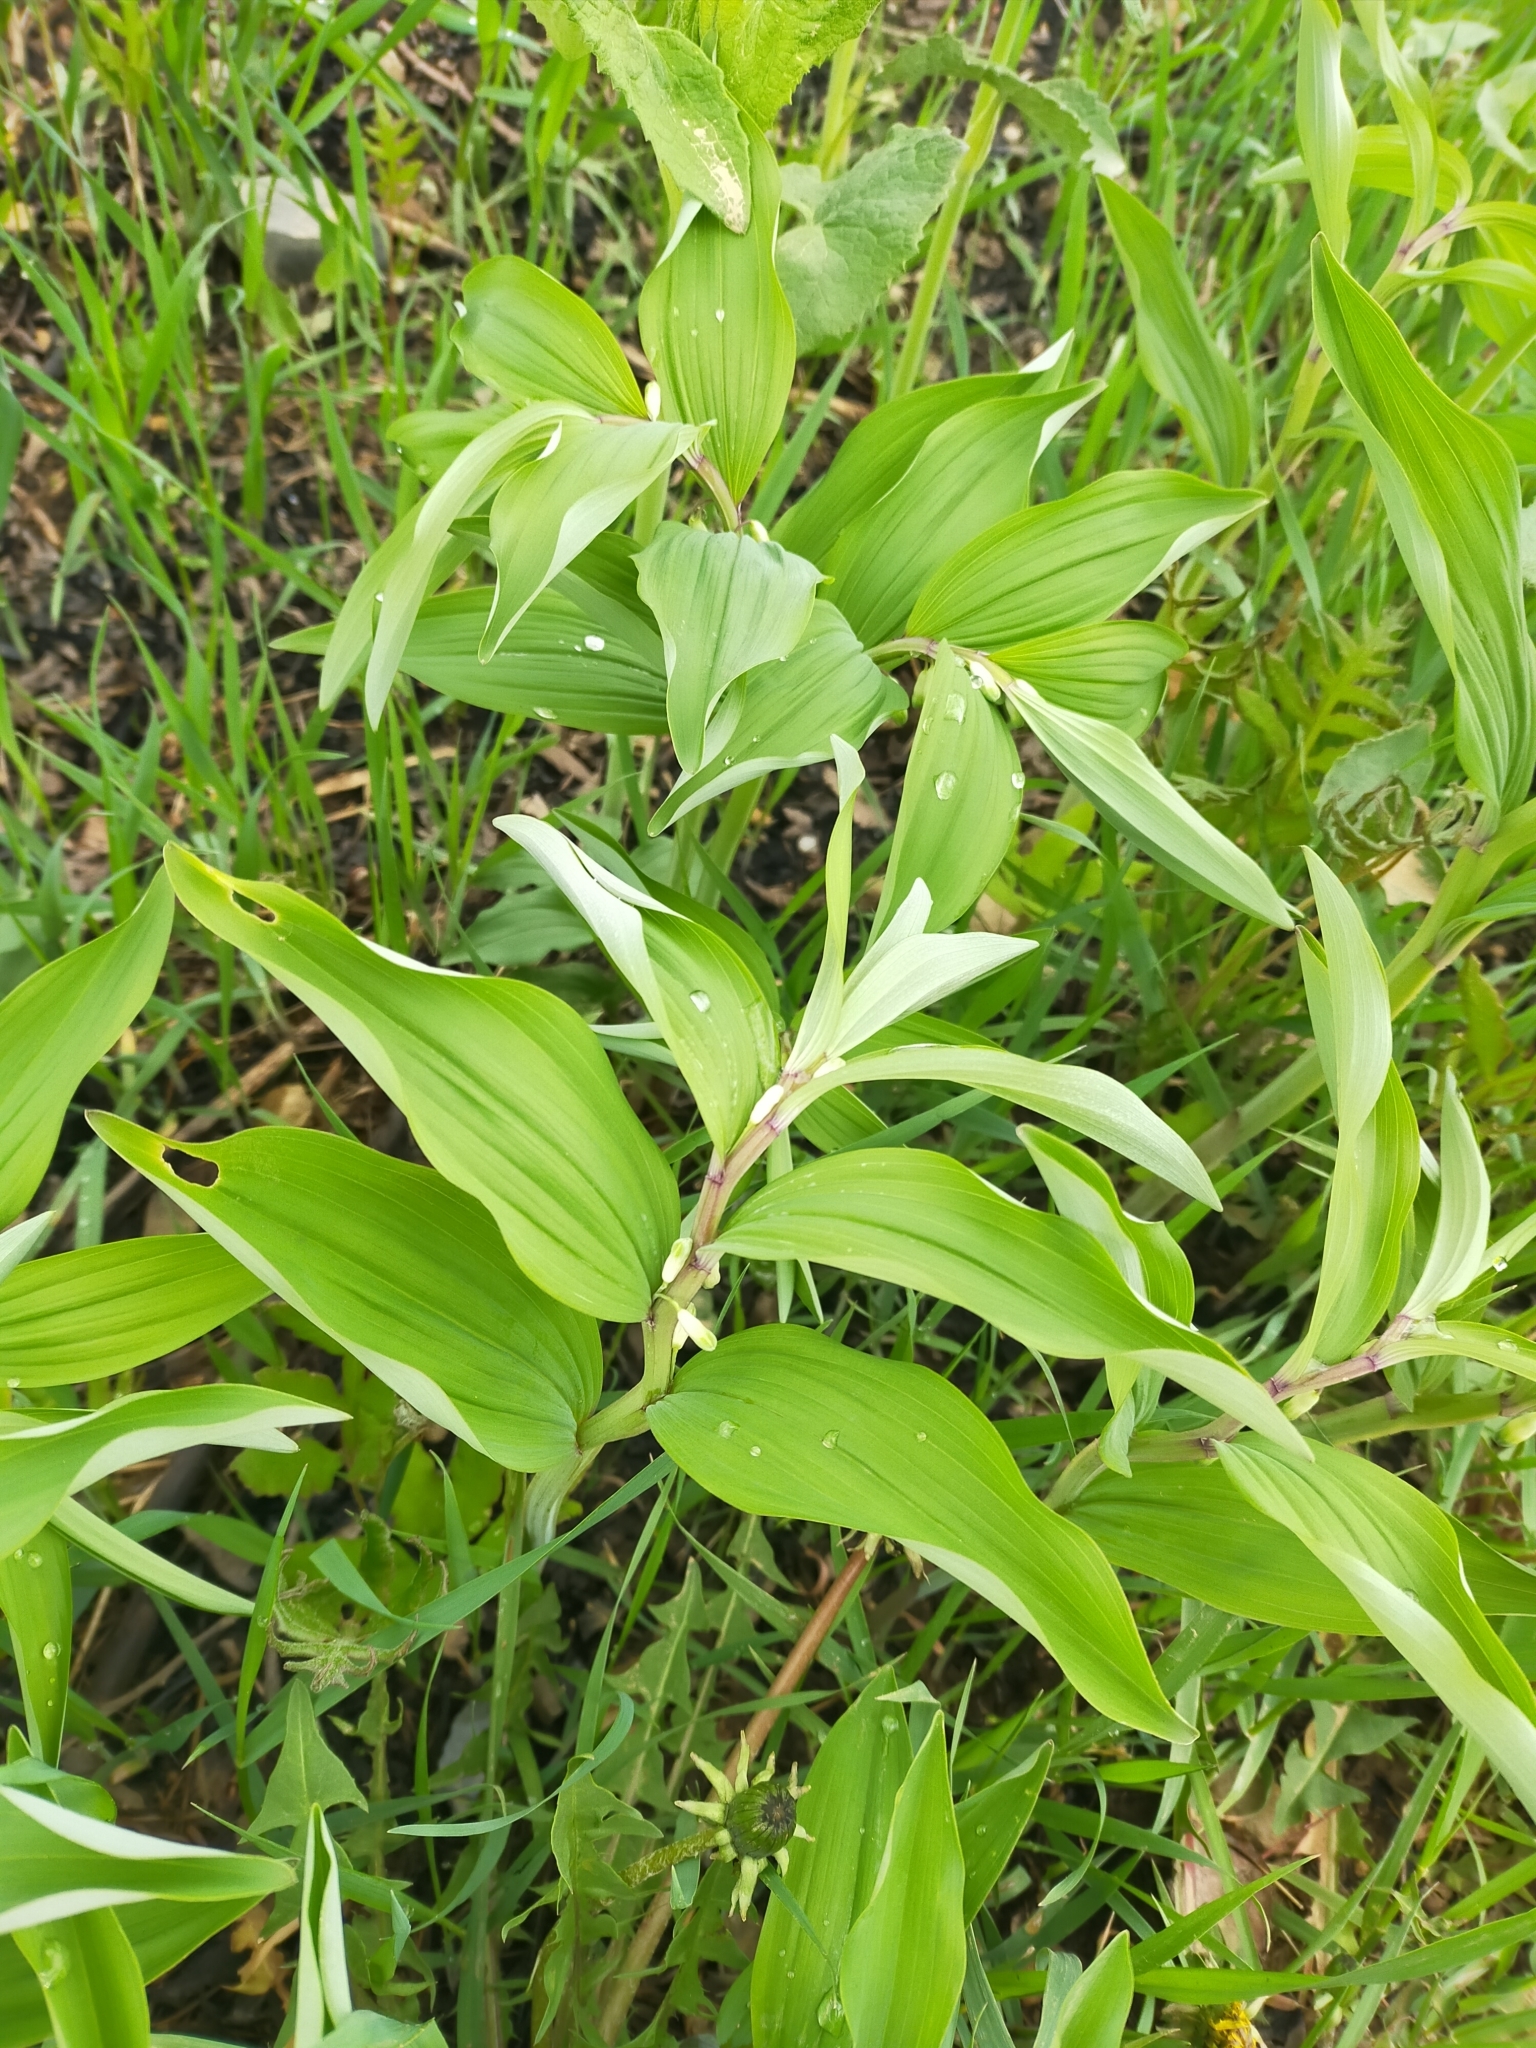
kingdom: Plantae
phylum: Tracheophyta
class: Liliopsida
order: Asparagales
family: Asparagaceae
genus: Polygonatum
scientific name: Polygonatum odoratum
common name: Angular solomon's-seal
